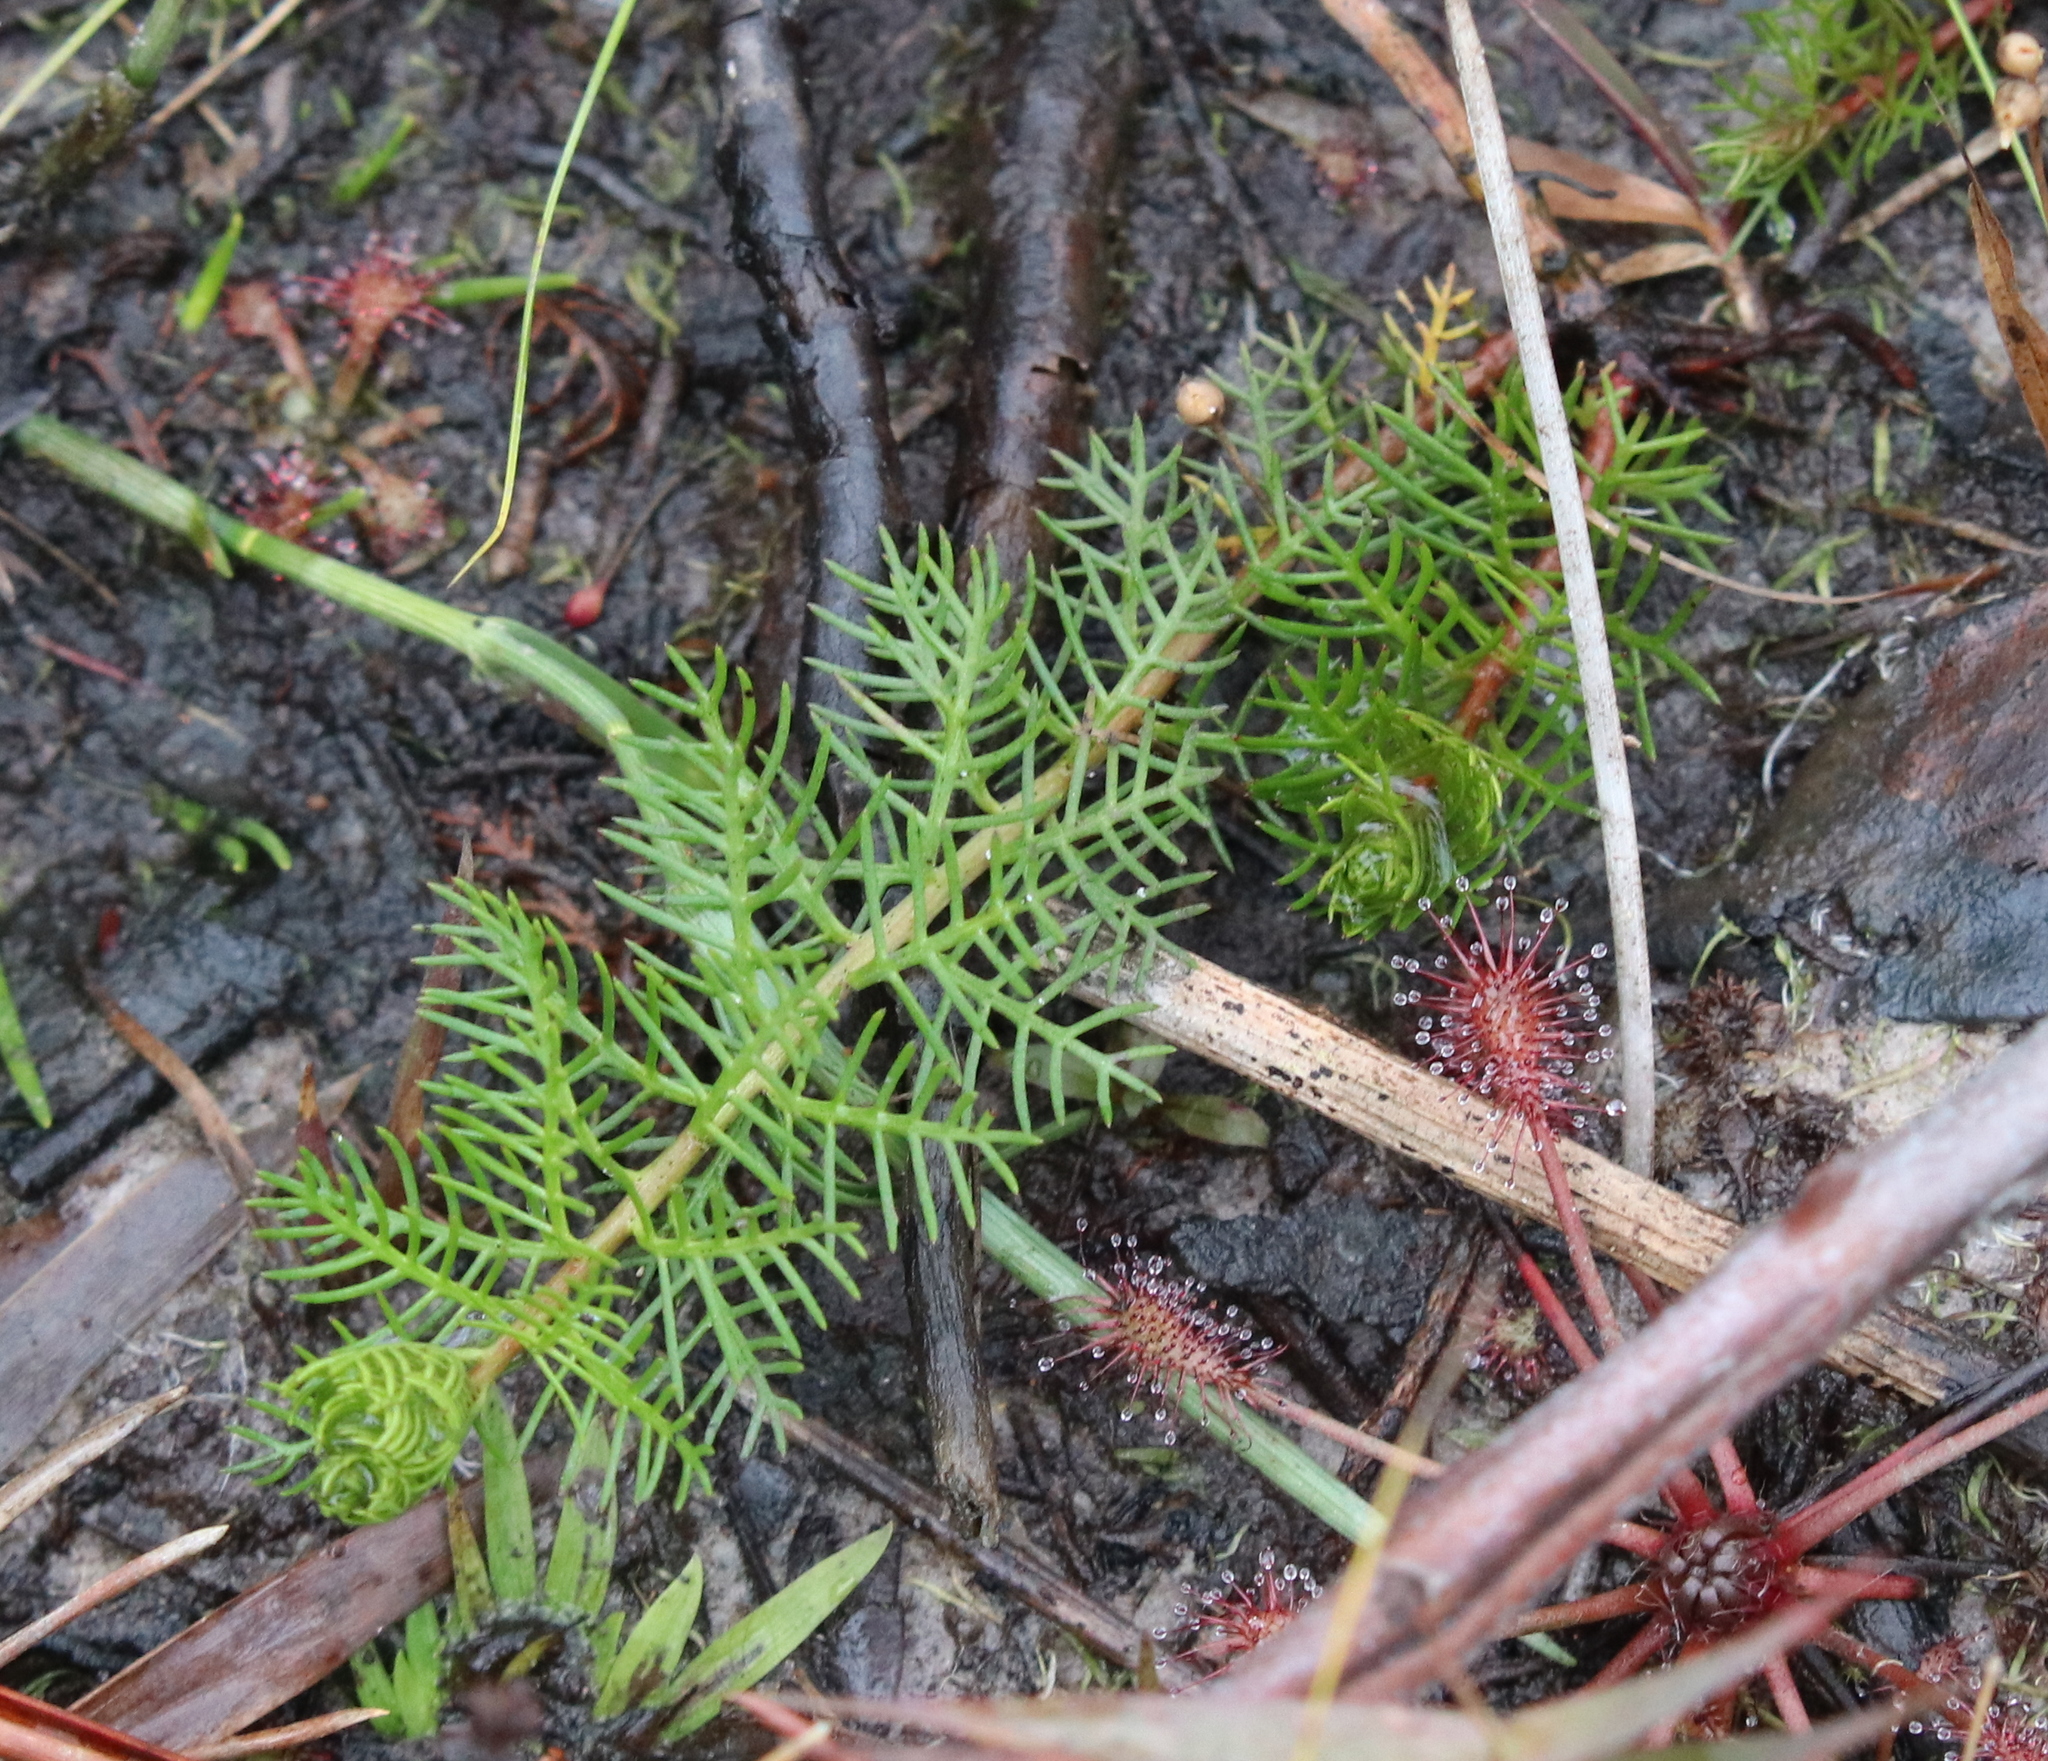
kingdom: Plantae
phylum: Tracheophyta
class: Magnoliopsida
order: Saxifragales
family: Haloragaceae
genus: Proserpinaca
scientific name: Proserpinaca pectinata
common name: Comb-leaved mermaidweed
